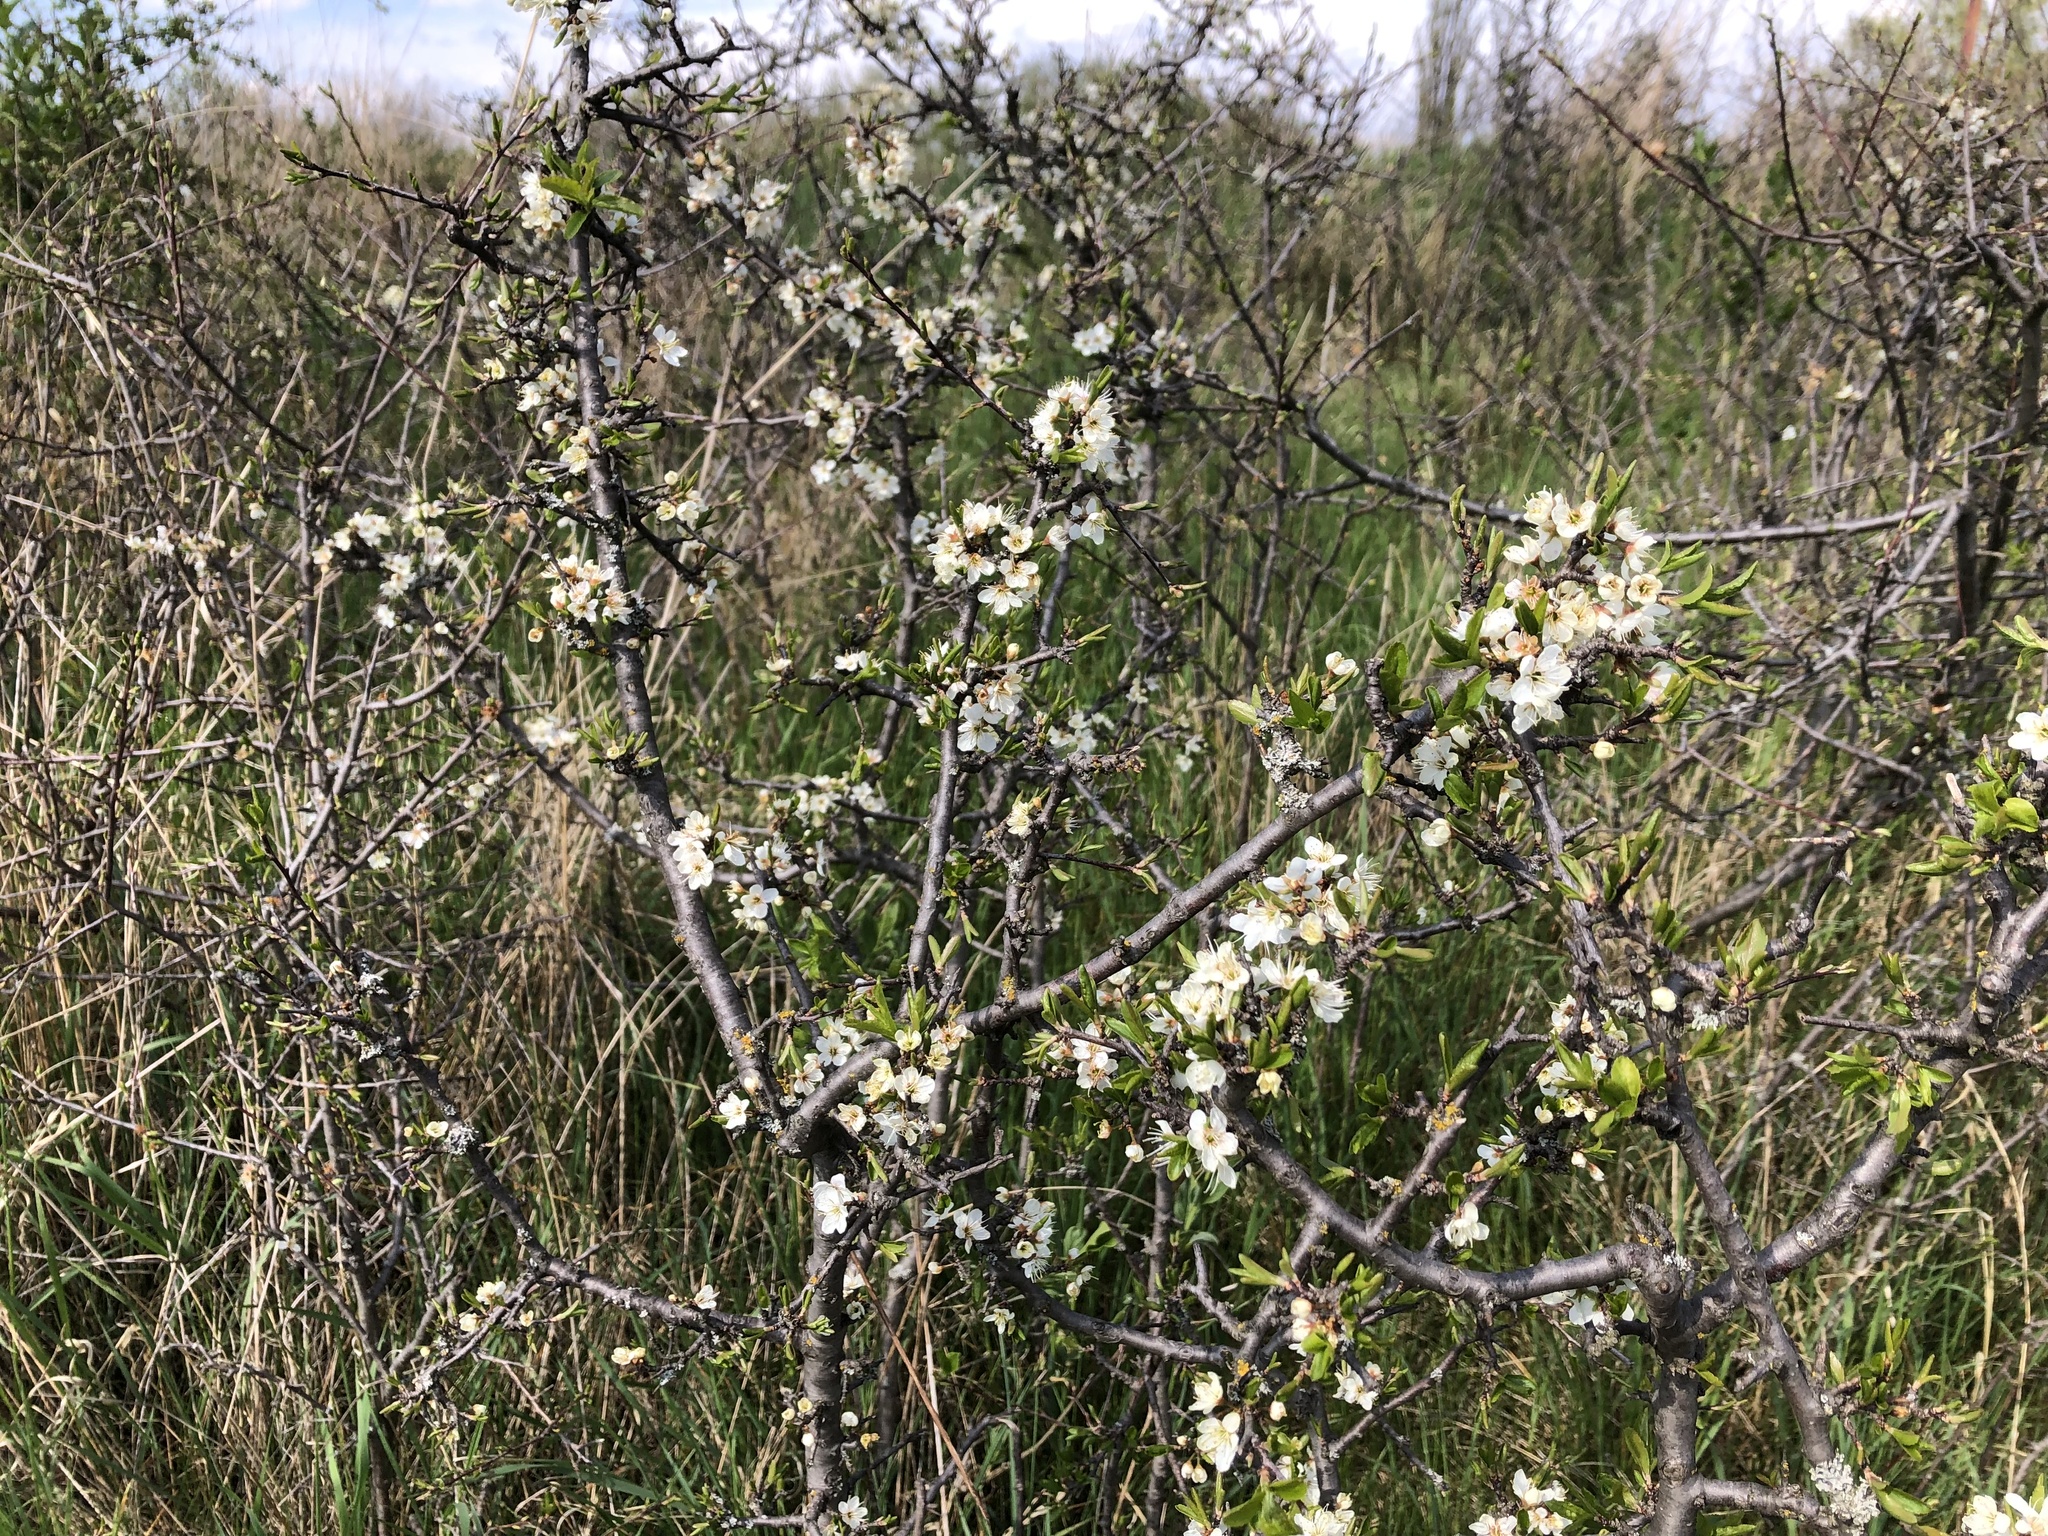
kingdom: Plantae
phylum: Tracheophyta
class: Magnoliopsida
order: Rosales
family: Rosaceae
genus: Prunus
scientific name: Prunus spinosa
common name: Blackthorn
